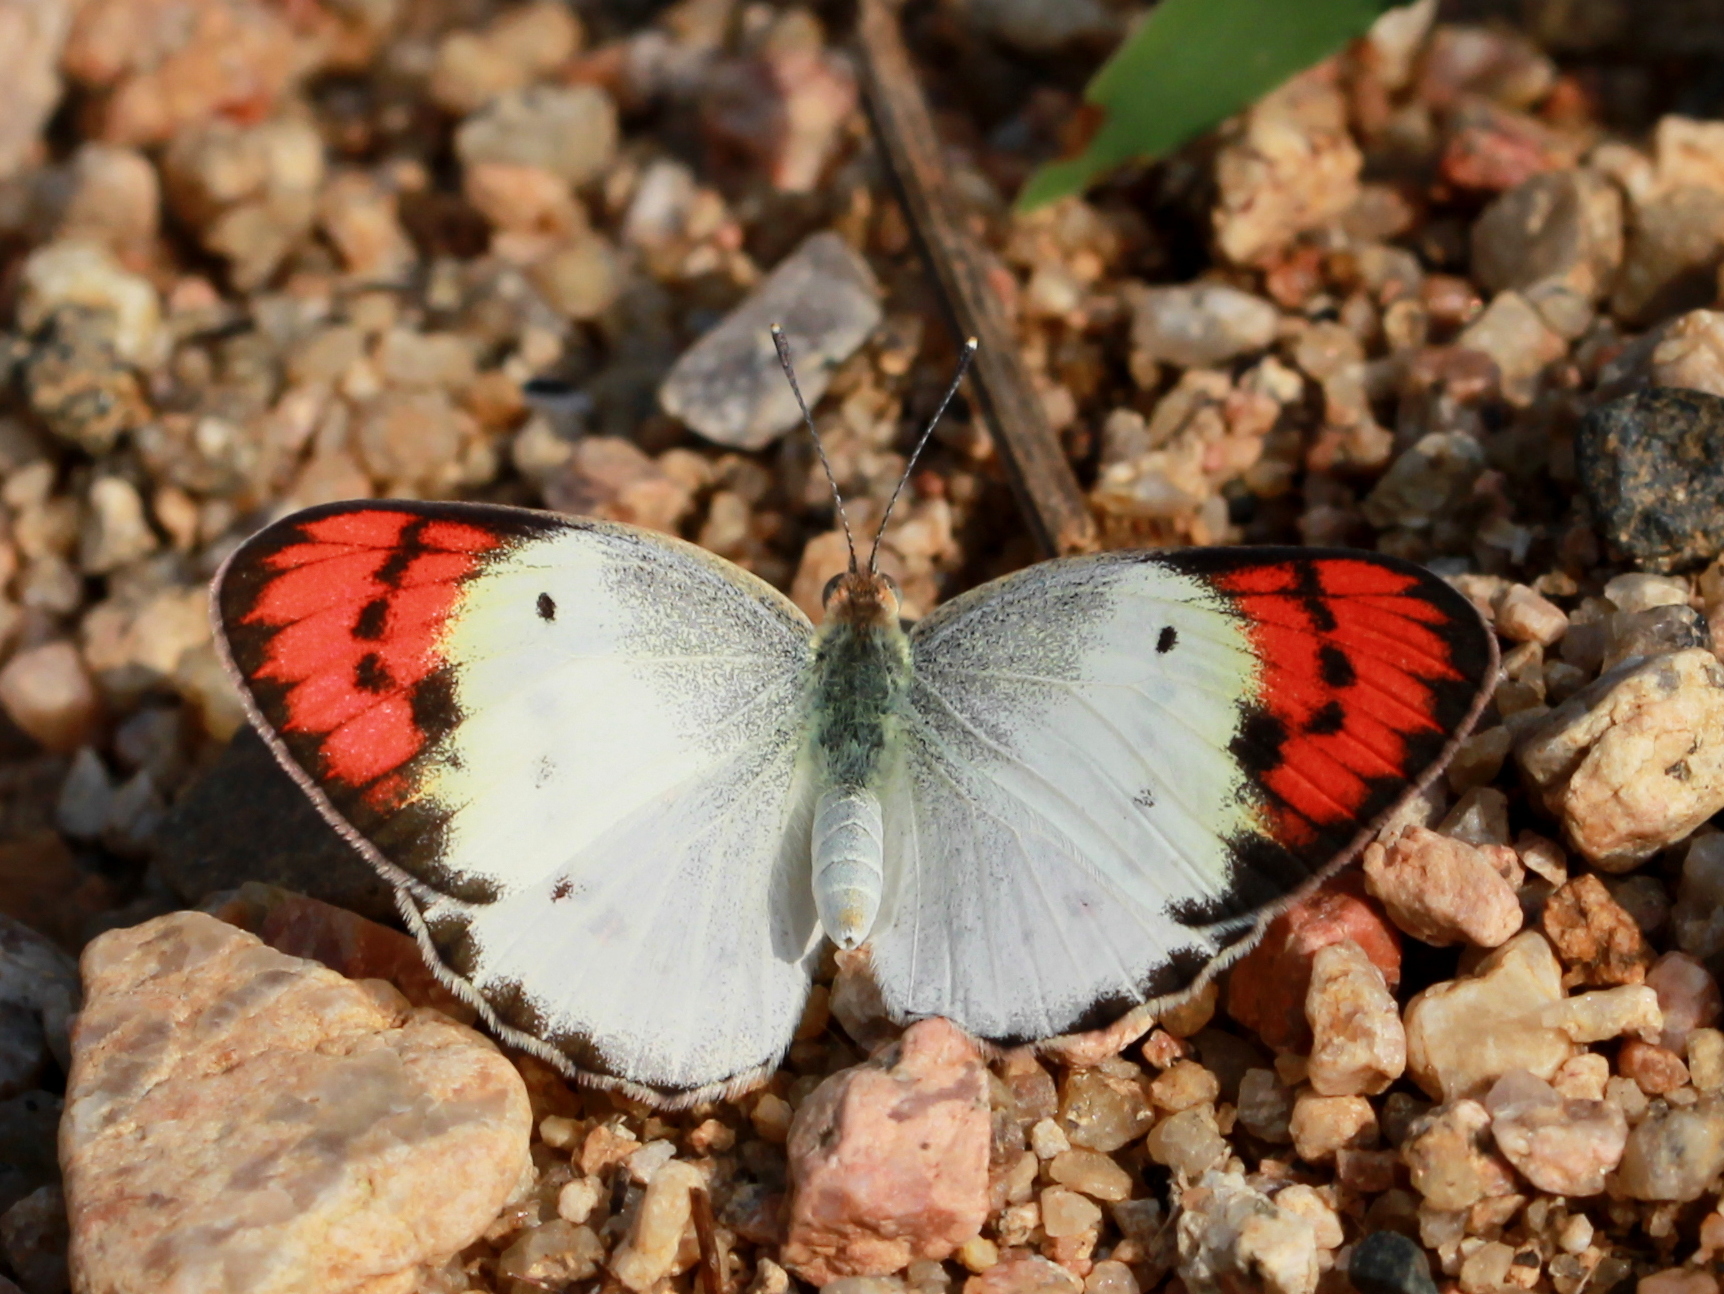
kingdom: Animalia
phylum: Arthropoda
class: Insecta
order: Lepidoptera
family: Pieridae
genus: Colotis
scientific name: Colotis danae
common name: Crimson tip
